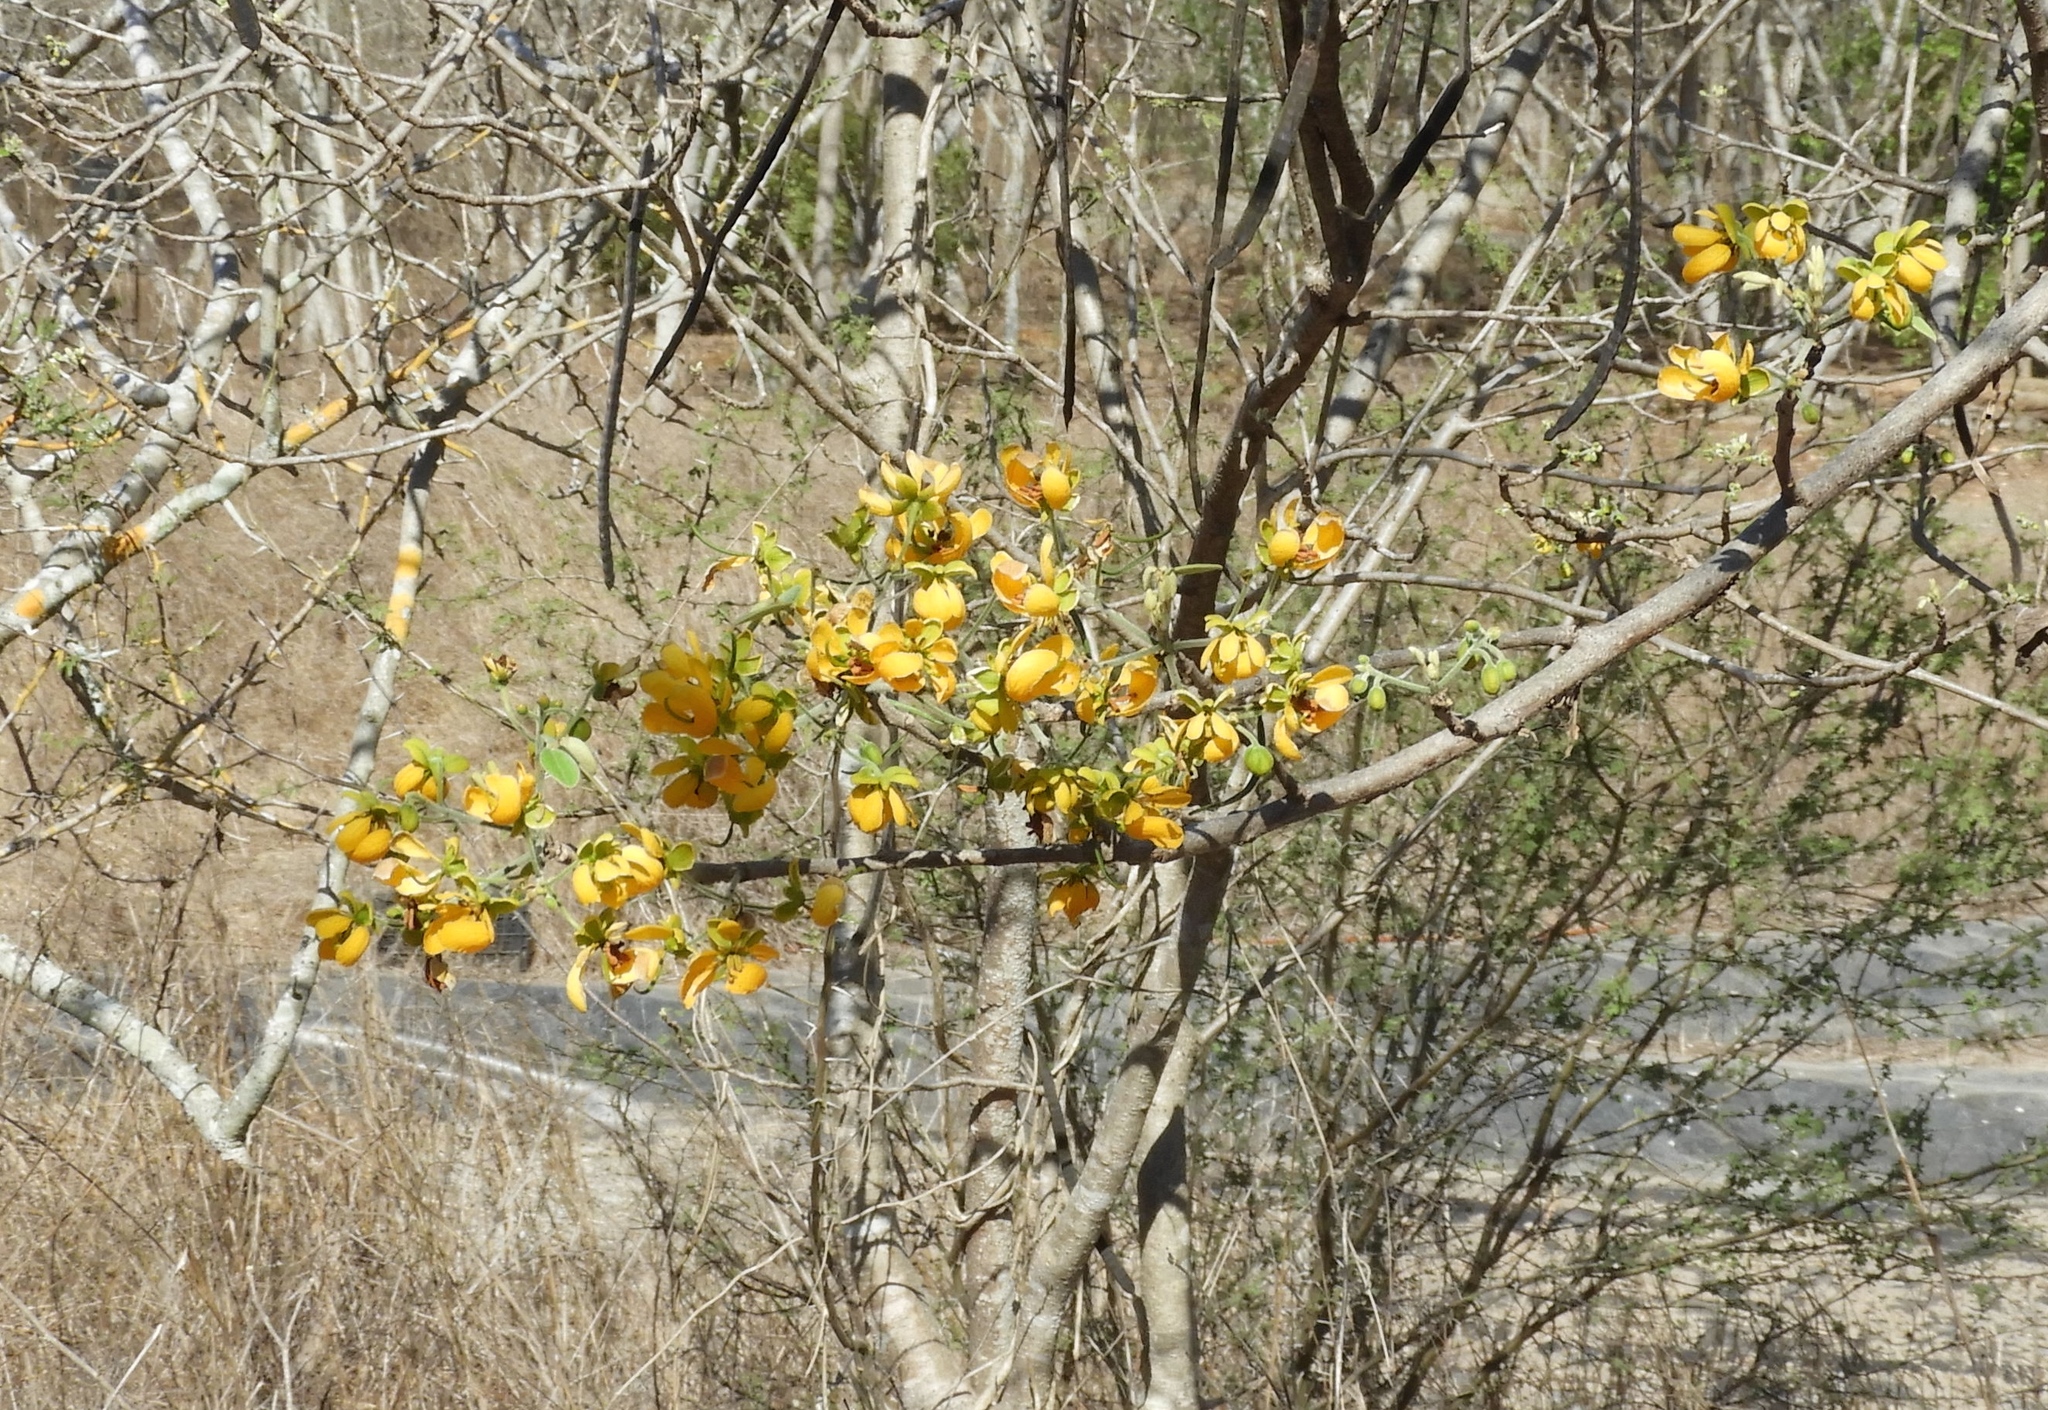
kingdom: Plantae
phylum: Tracheophyta
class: Magnoliopsida
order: Fabales
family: Fabaceae
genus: Senna
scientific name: Senna atomaria
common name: Flor de san jose
